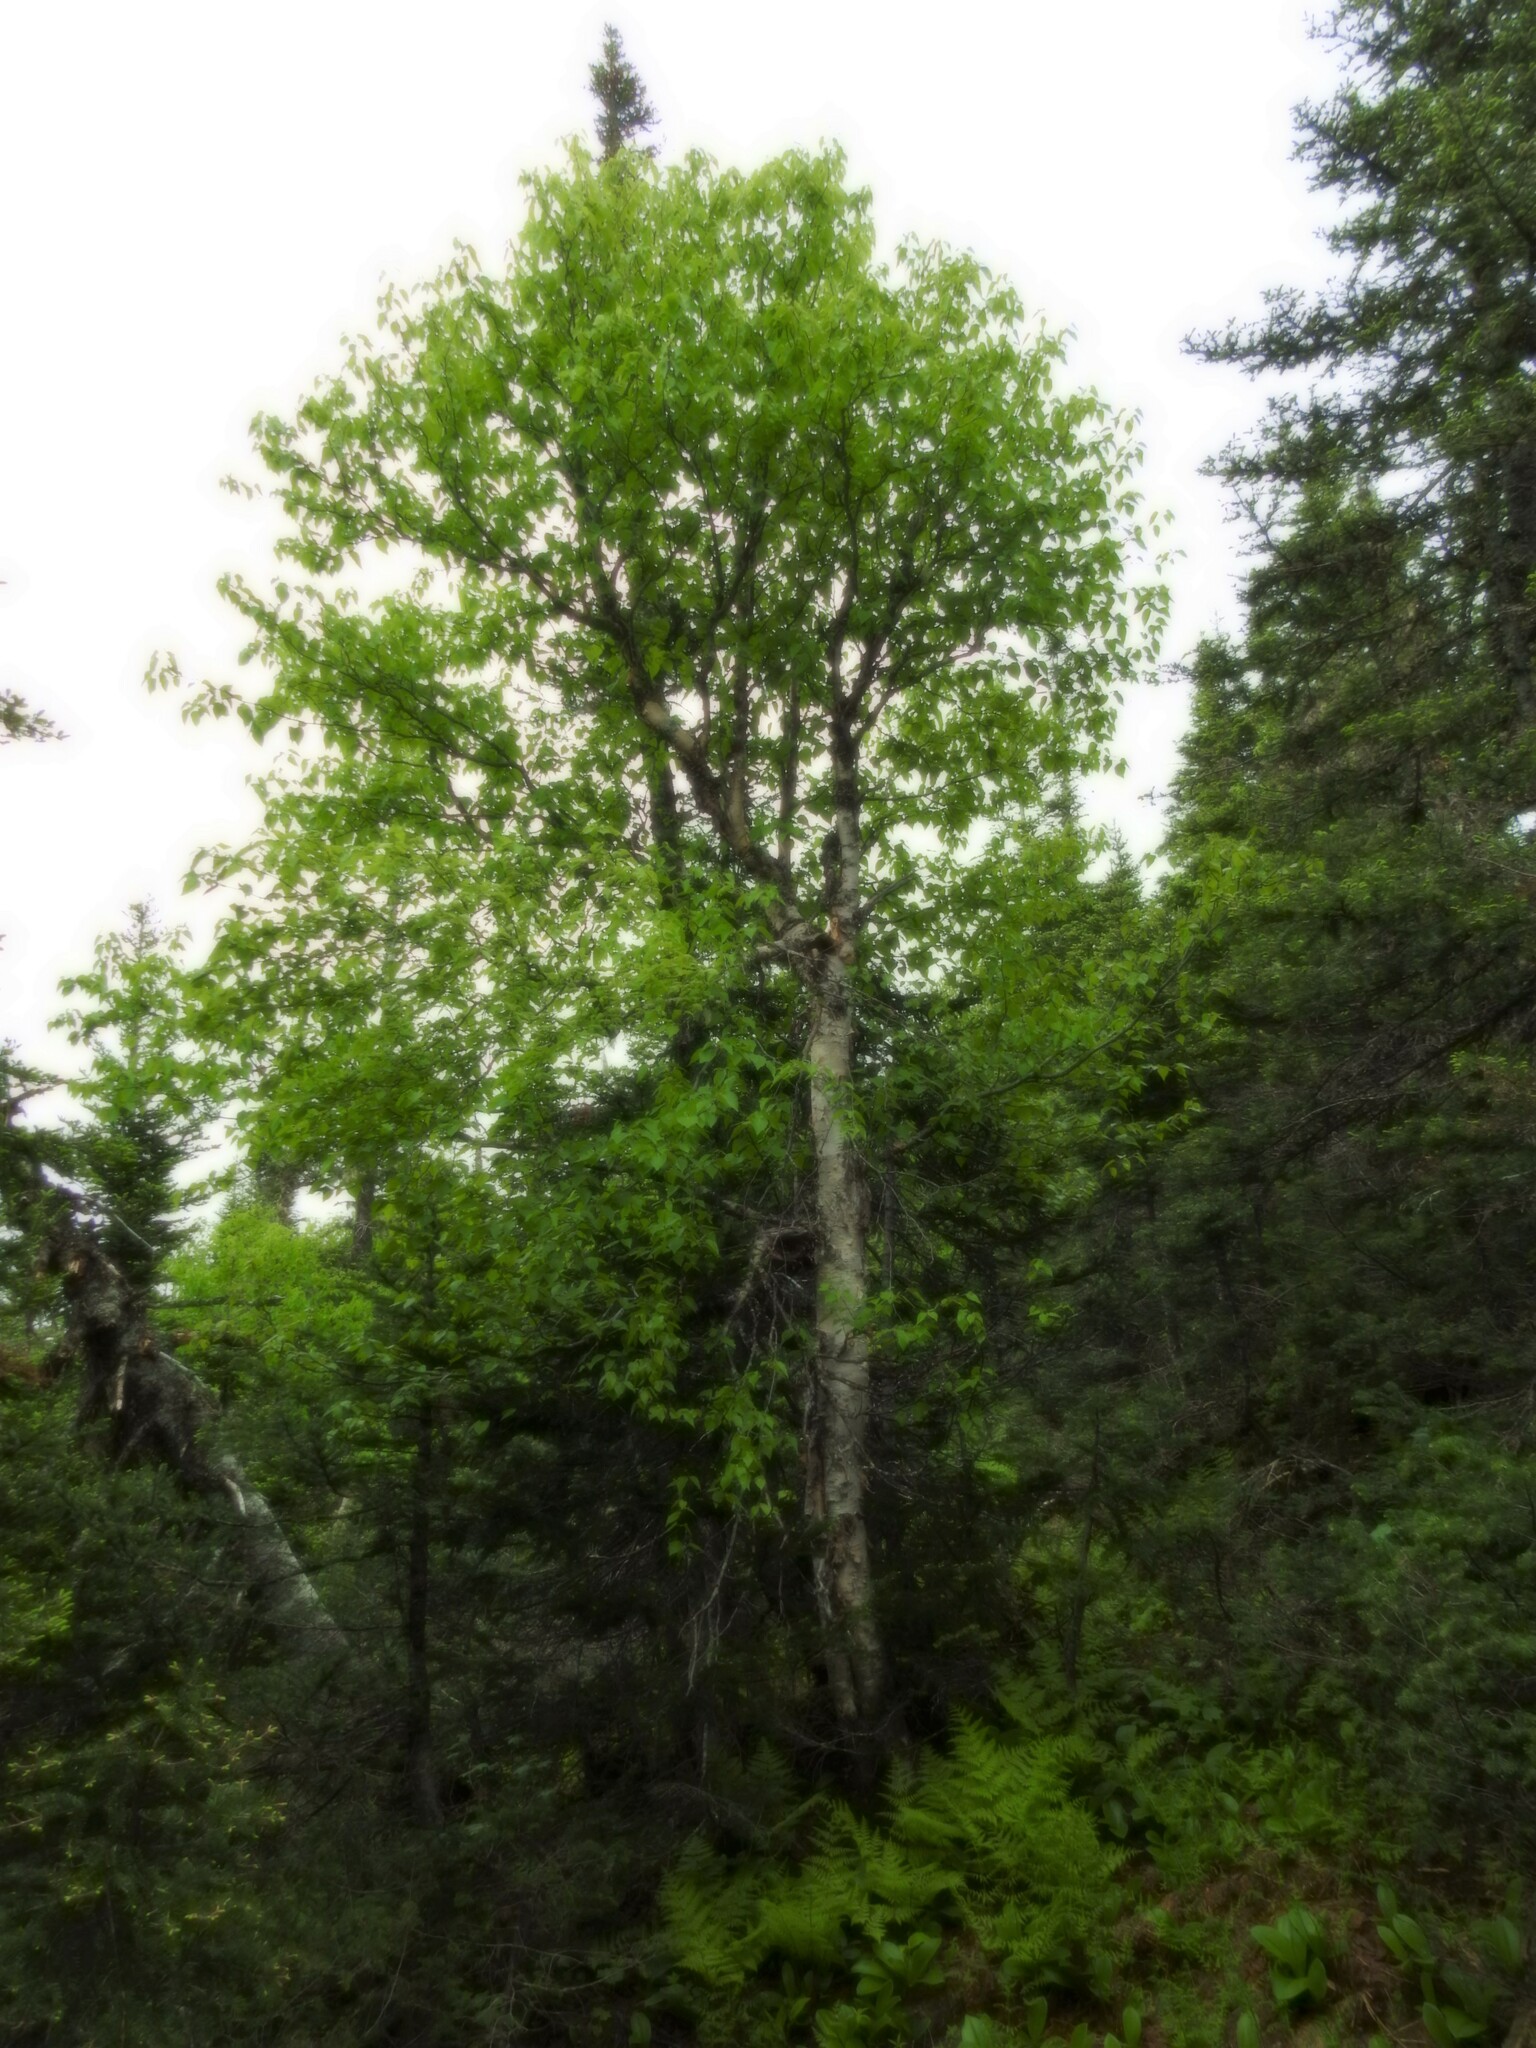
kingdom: Plantae
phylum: Tracheophyta
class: Magnoliopsida
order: Fagales
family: Betulaceae
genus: Betula
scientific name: Betula
